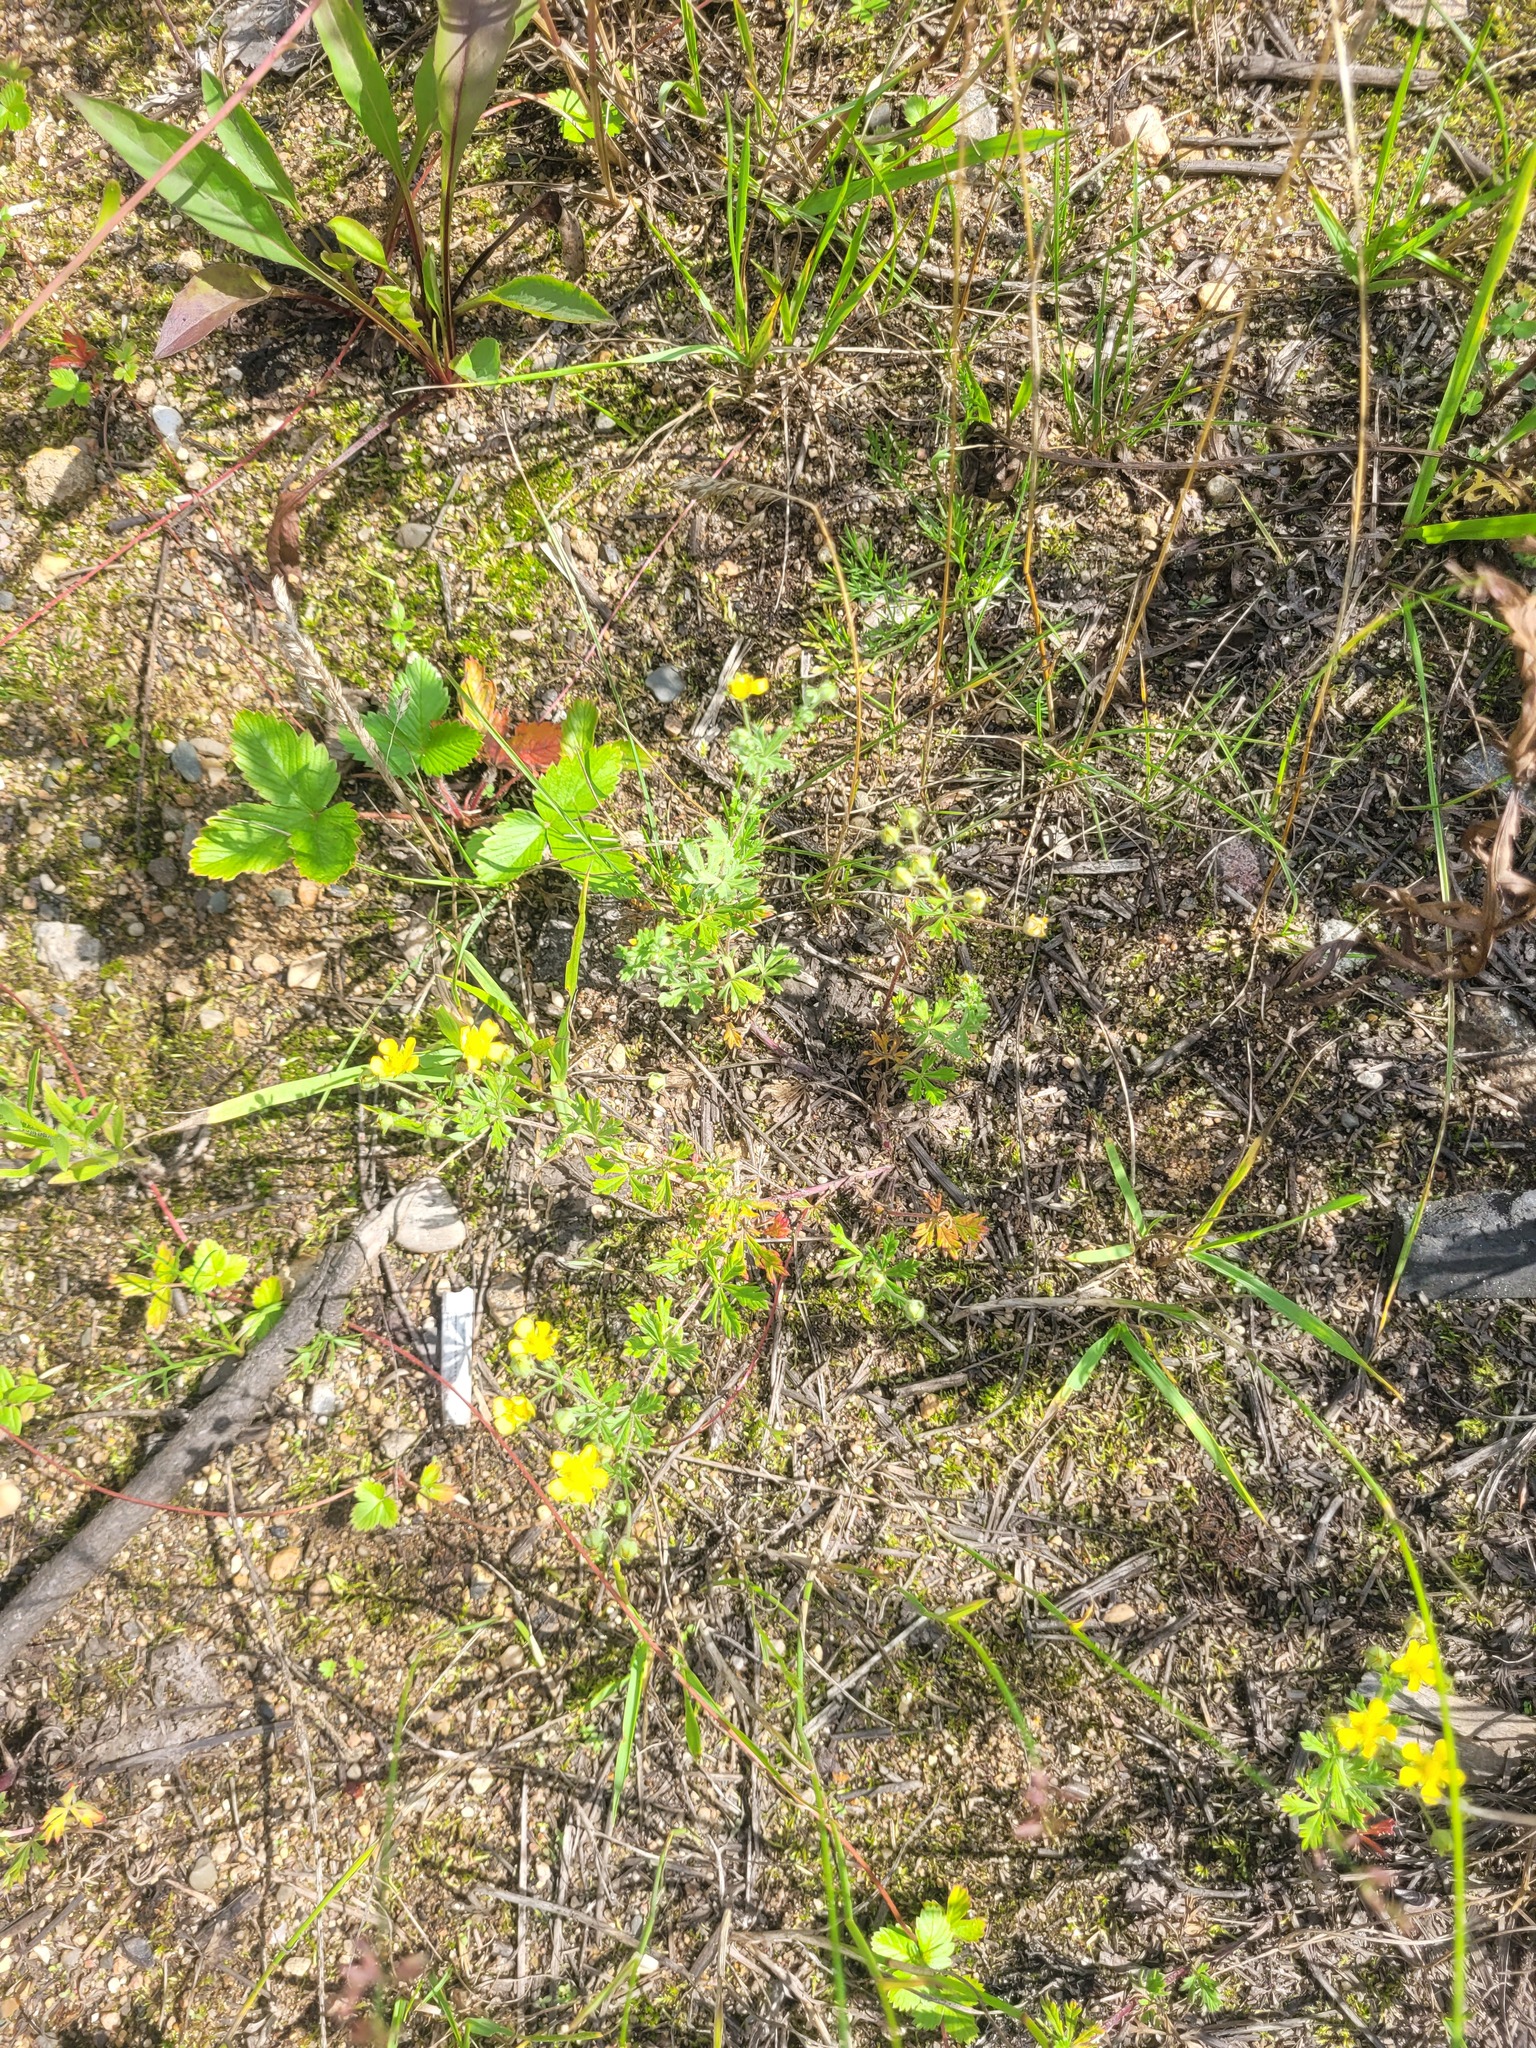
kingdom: Plantae
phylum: Tracheophyta
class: Magnoliopsida
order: Rosales
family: Rosaceae
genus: Potentilla
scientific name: Potentilla argentea
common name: Hoary cinquefoil
